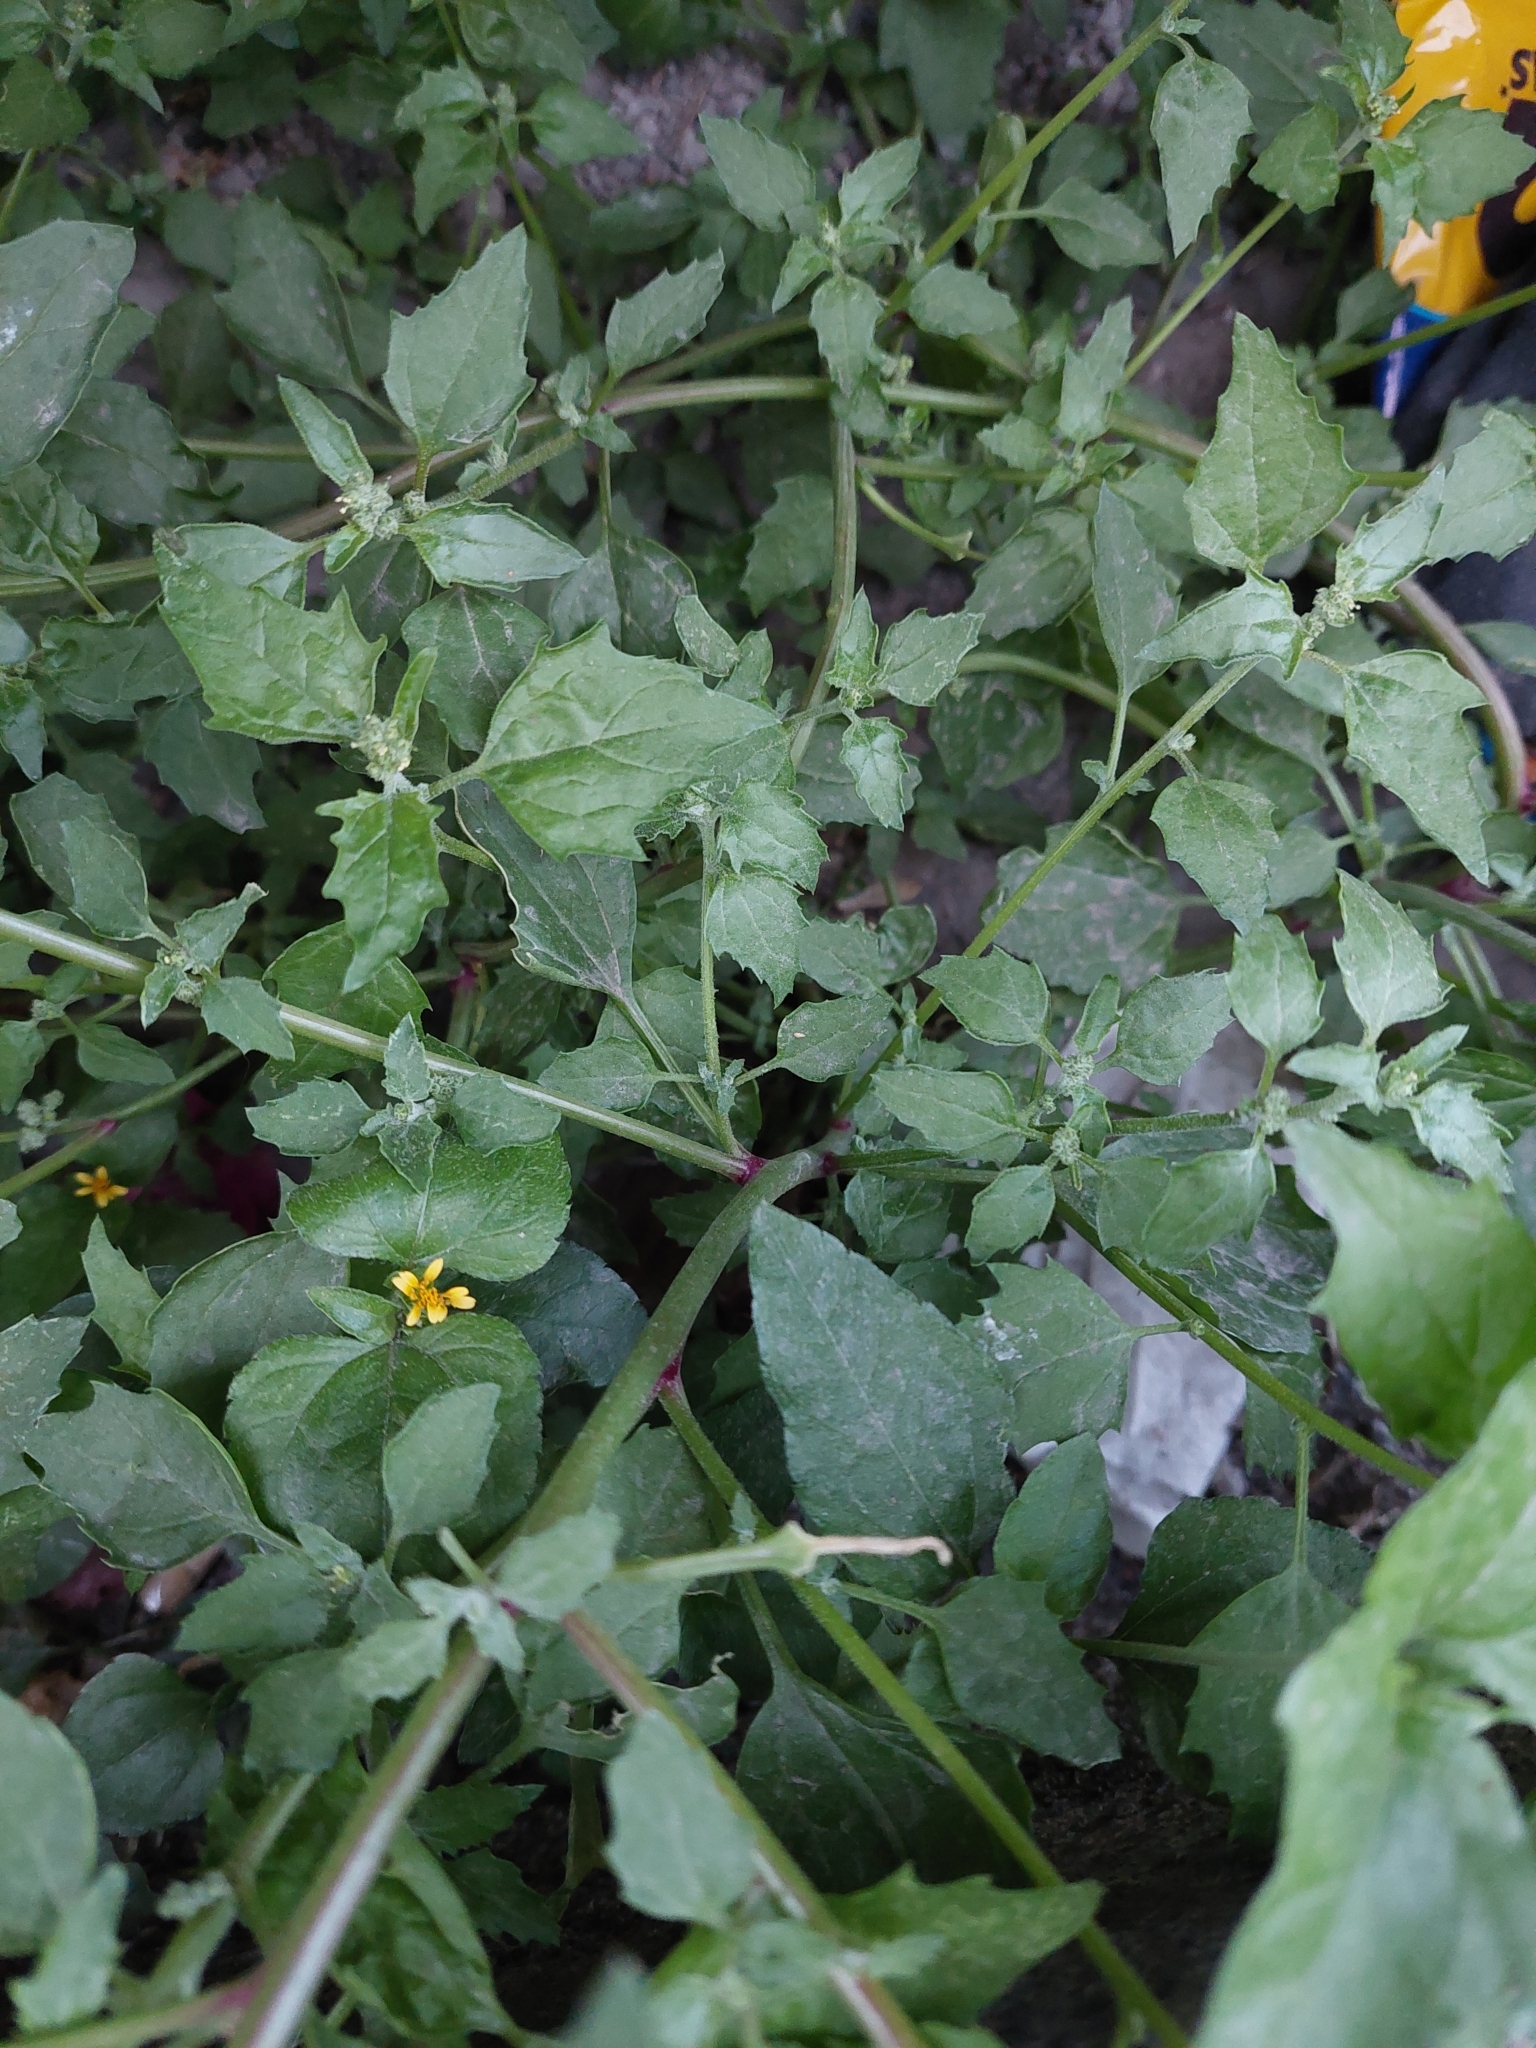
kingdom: Plantae
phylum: Tracheophyta
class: Magnoliopsida
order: Caryophyllales
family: Amaranthaceae
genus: Chenopodiastrum
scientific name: Chenopodiastrum murale
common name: Sowbane
